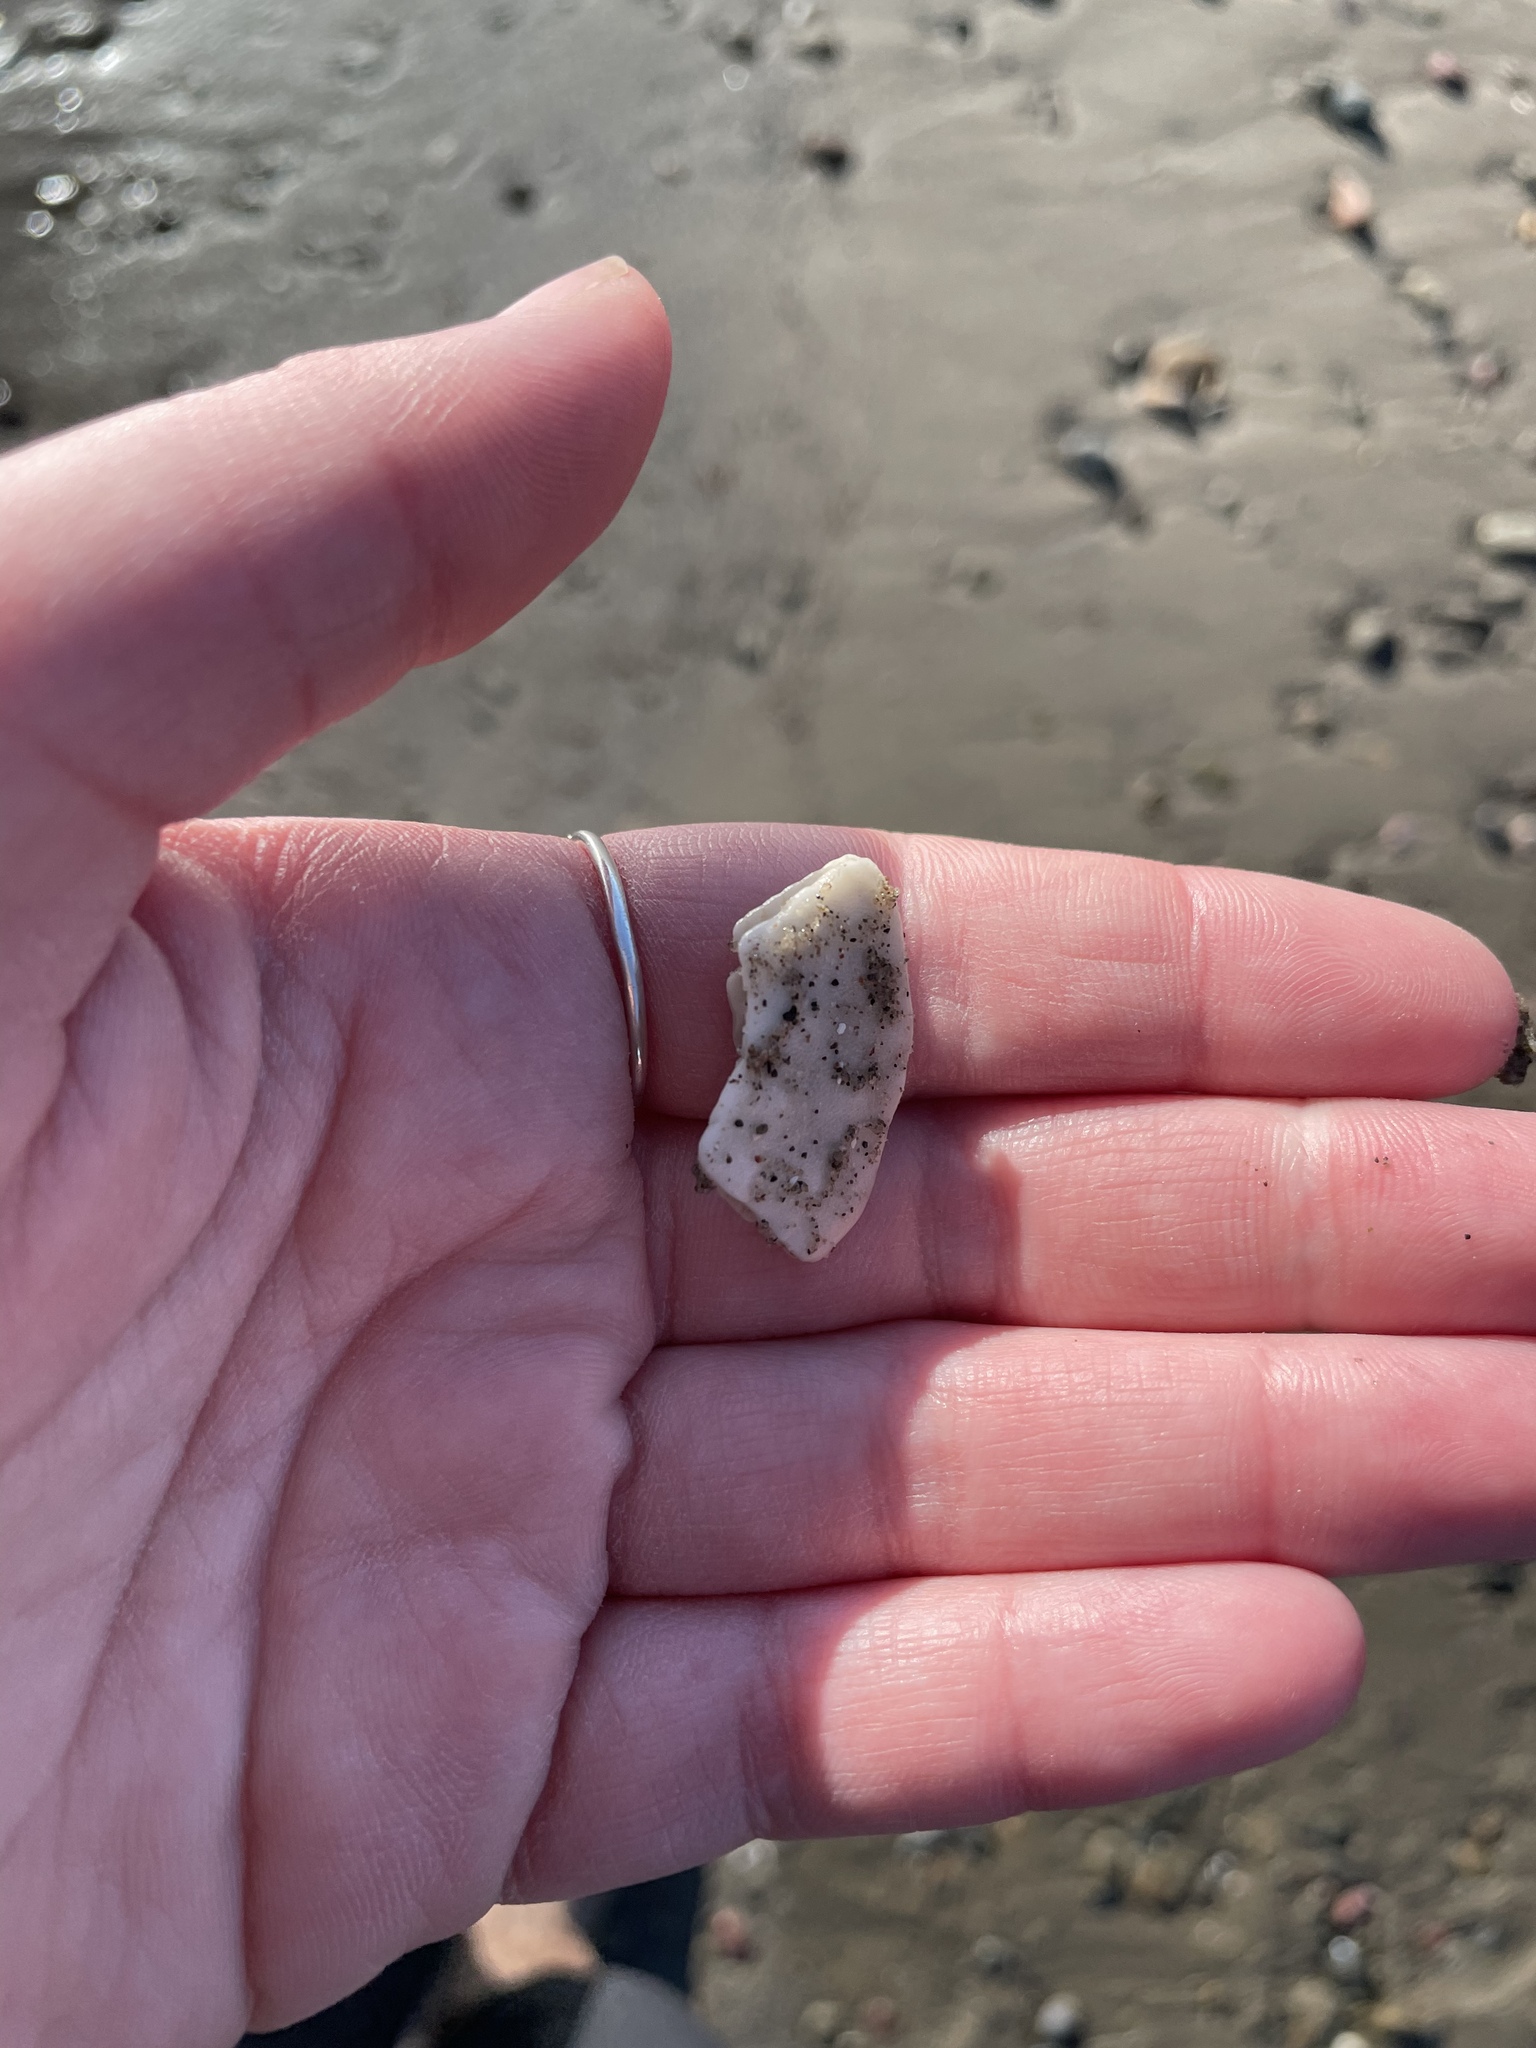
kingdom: Animalia
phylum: Echinodermata
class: Echinoidea
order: Echinolampadacea
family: Echinarachniidae
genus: Echinarachnius
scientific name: Echinarachnius parma
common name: Common sand dollar
